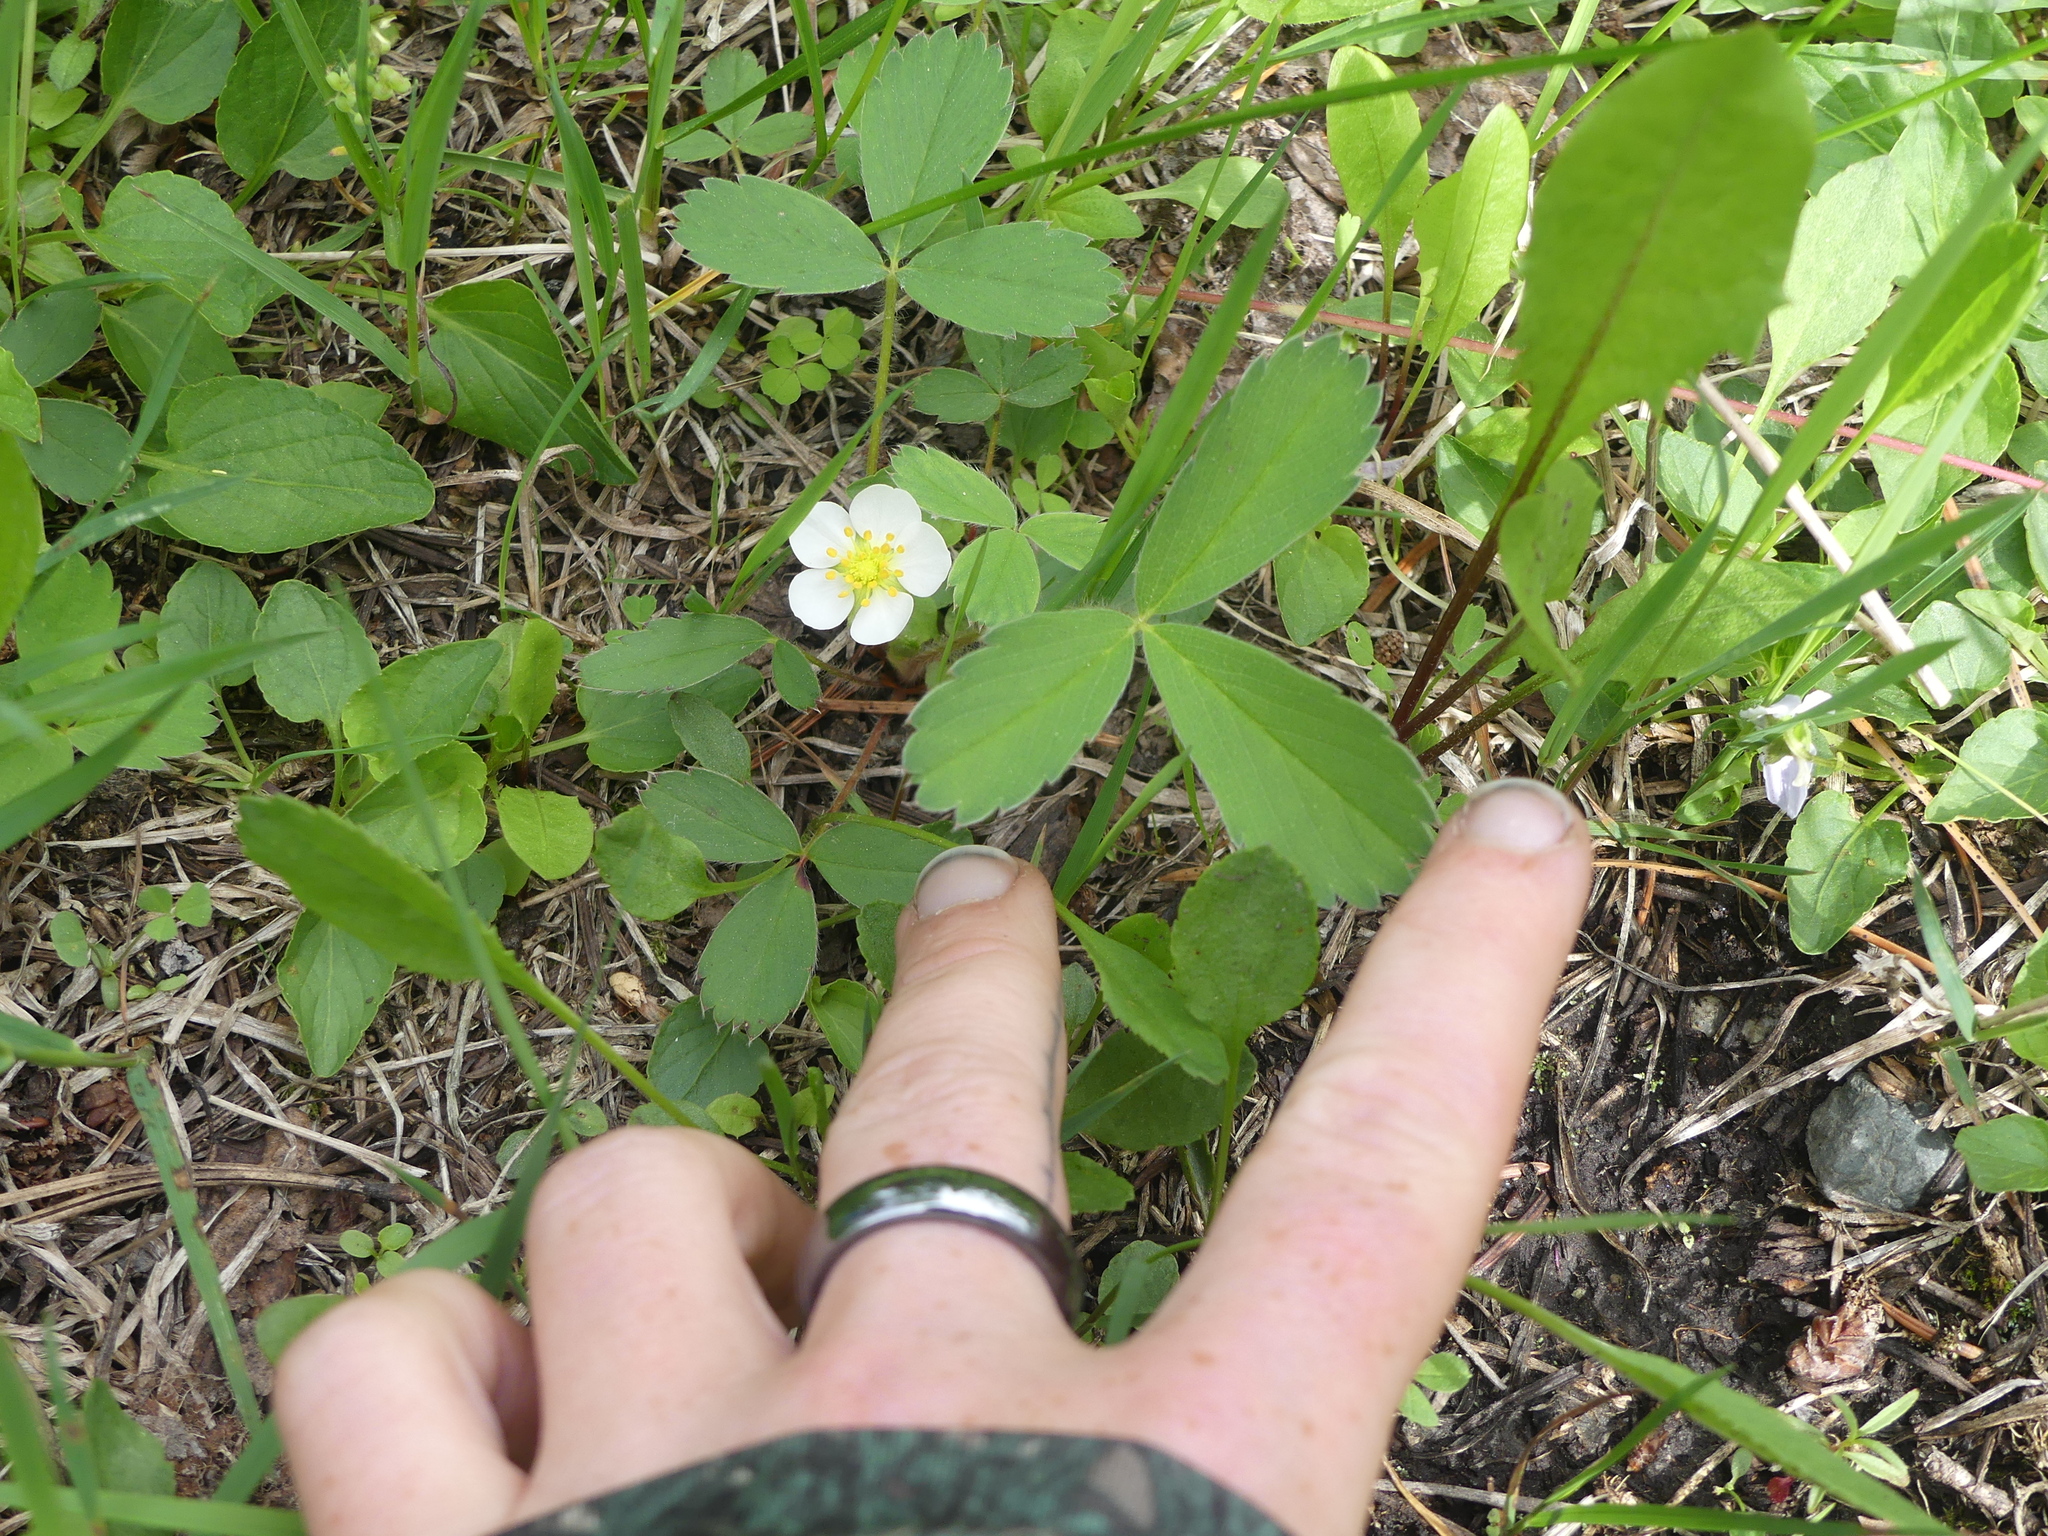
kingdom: Plantae
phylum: Tracheophyta
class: Magnoliopsida
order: Rosales
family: Rosaceae
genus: Fragaria
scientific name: Fragaria virginiana
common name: Thickleaved wild strawberry
